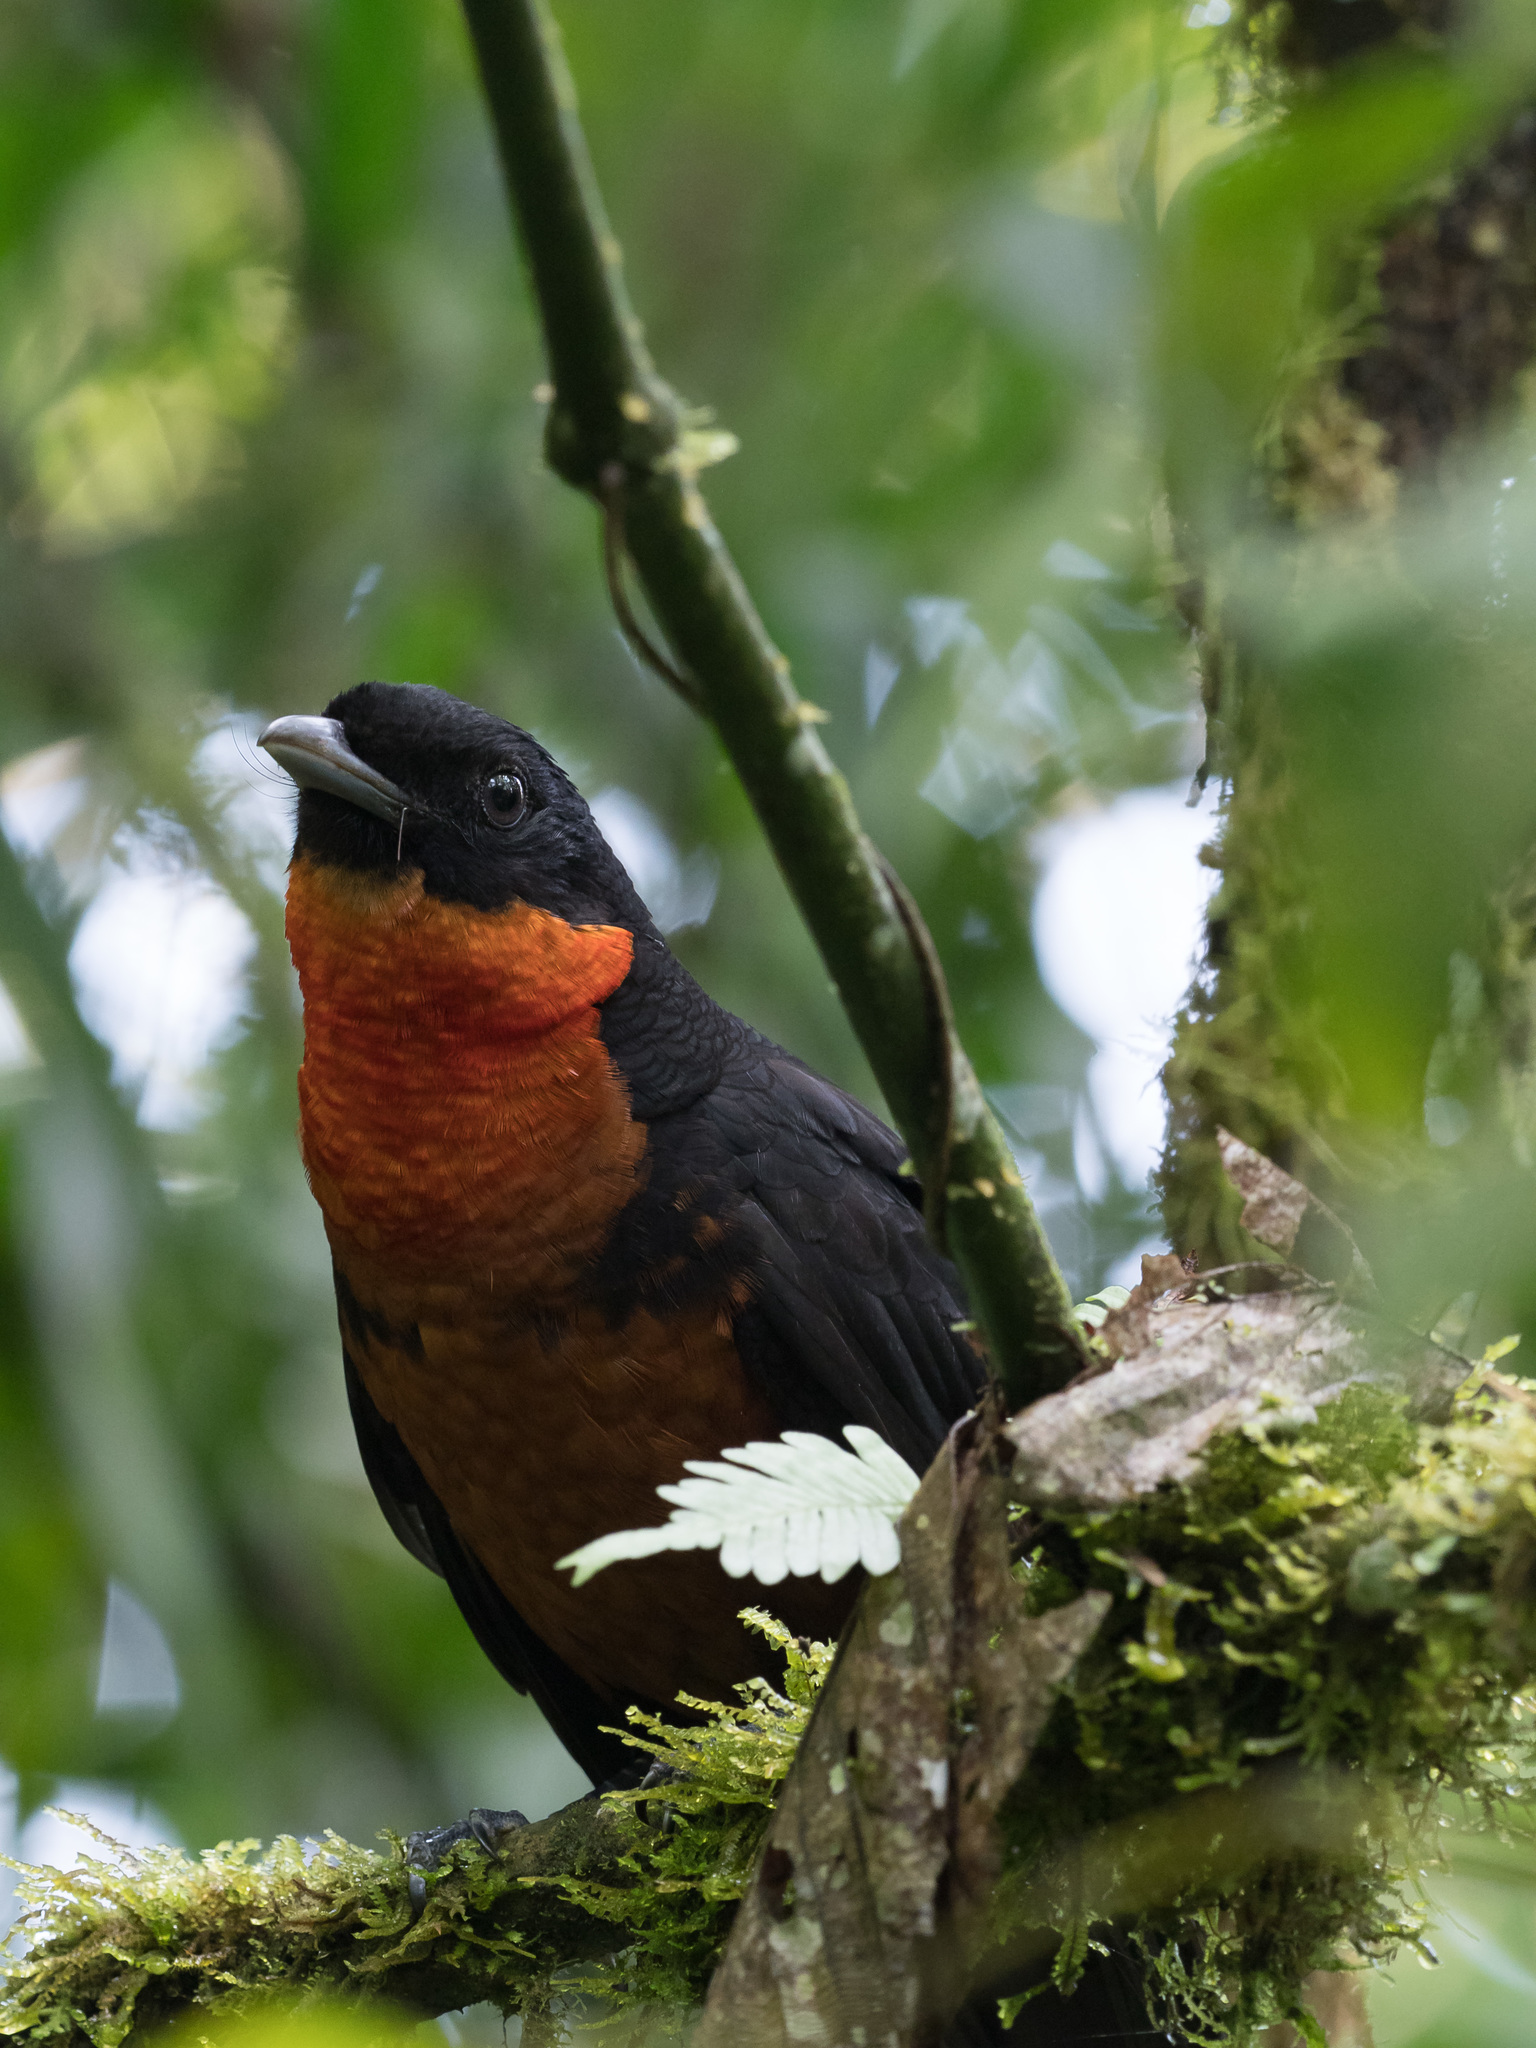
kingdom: Animalia
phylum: Chordata
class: Aves
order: Passeriformes
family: Cotingidae
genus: Pyroderus
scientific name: Pyroderus scutatus
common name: Red-ruffed fruitcrow
